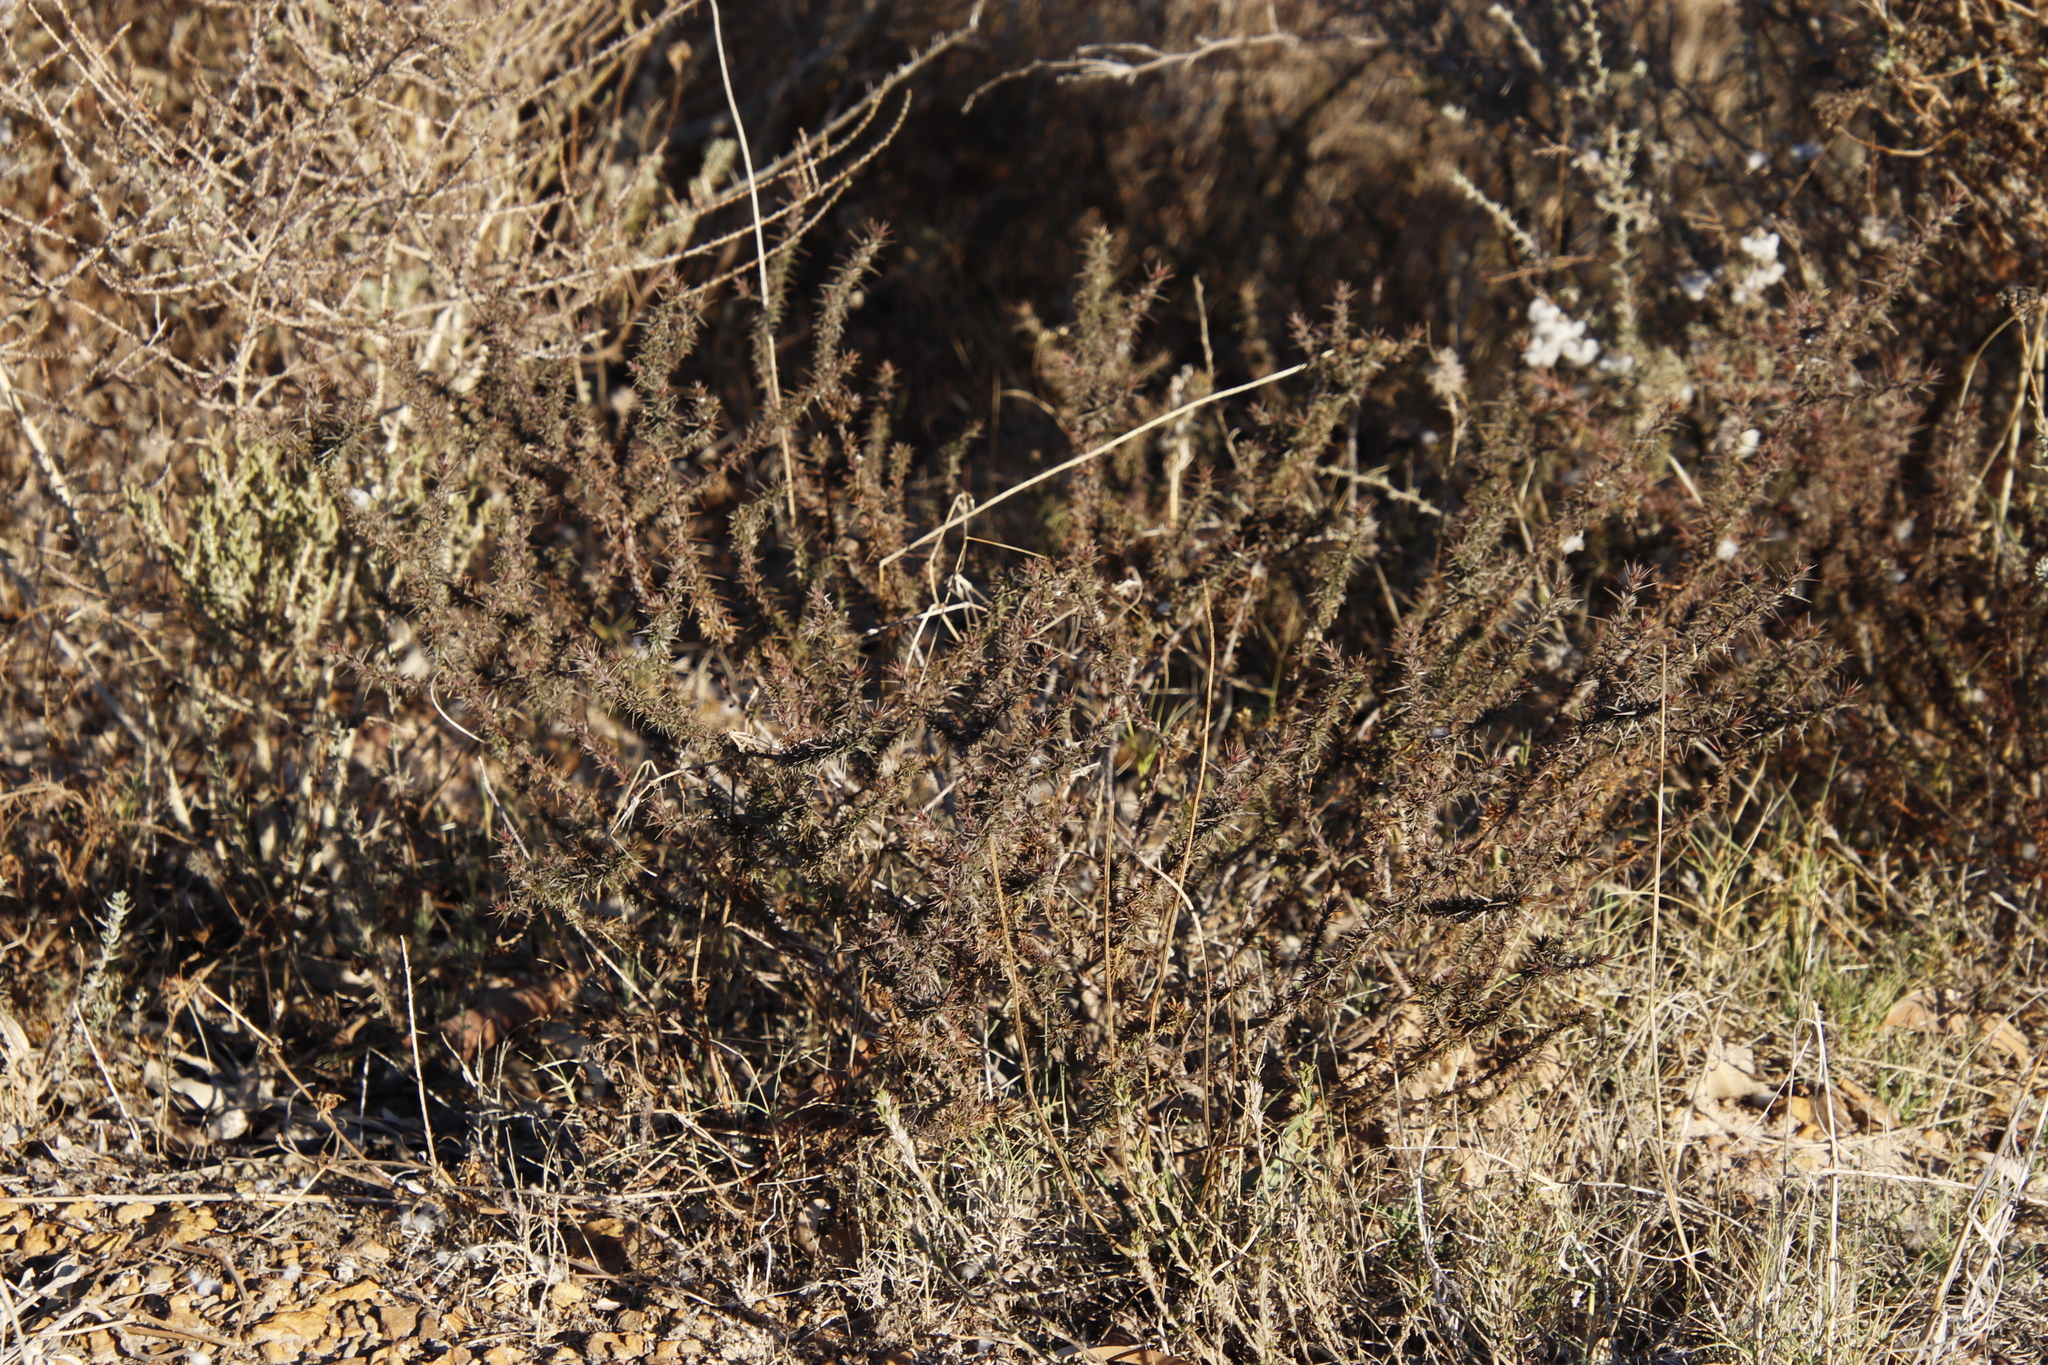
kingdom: Plantae
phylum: Tracheophyta
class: Magnoliopsida
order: Fabales
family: Polygalaceae
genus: Muraltia
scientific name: Muraltia ononidifolia
